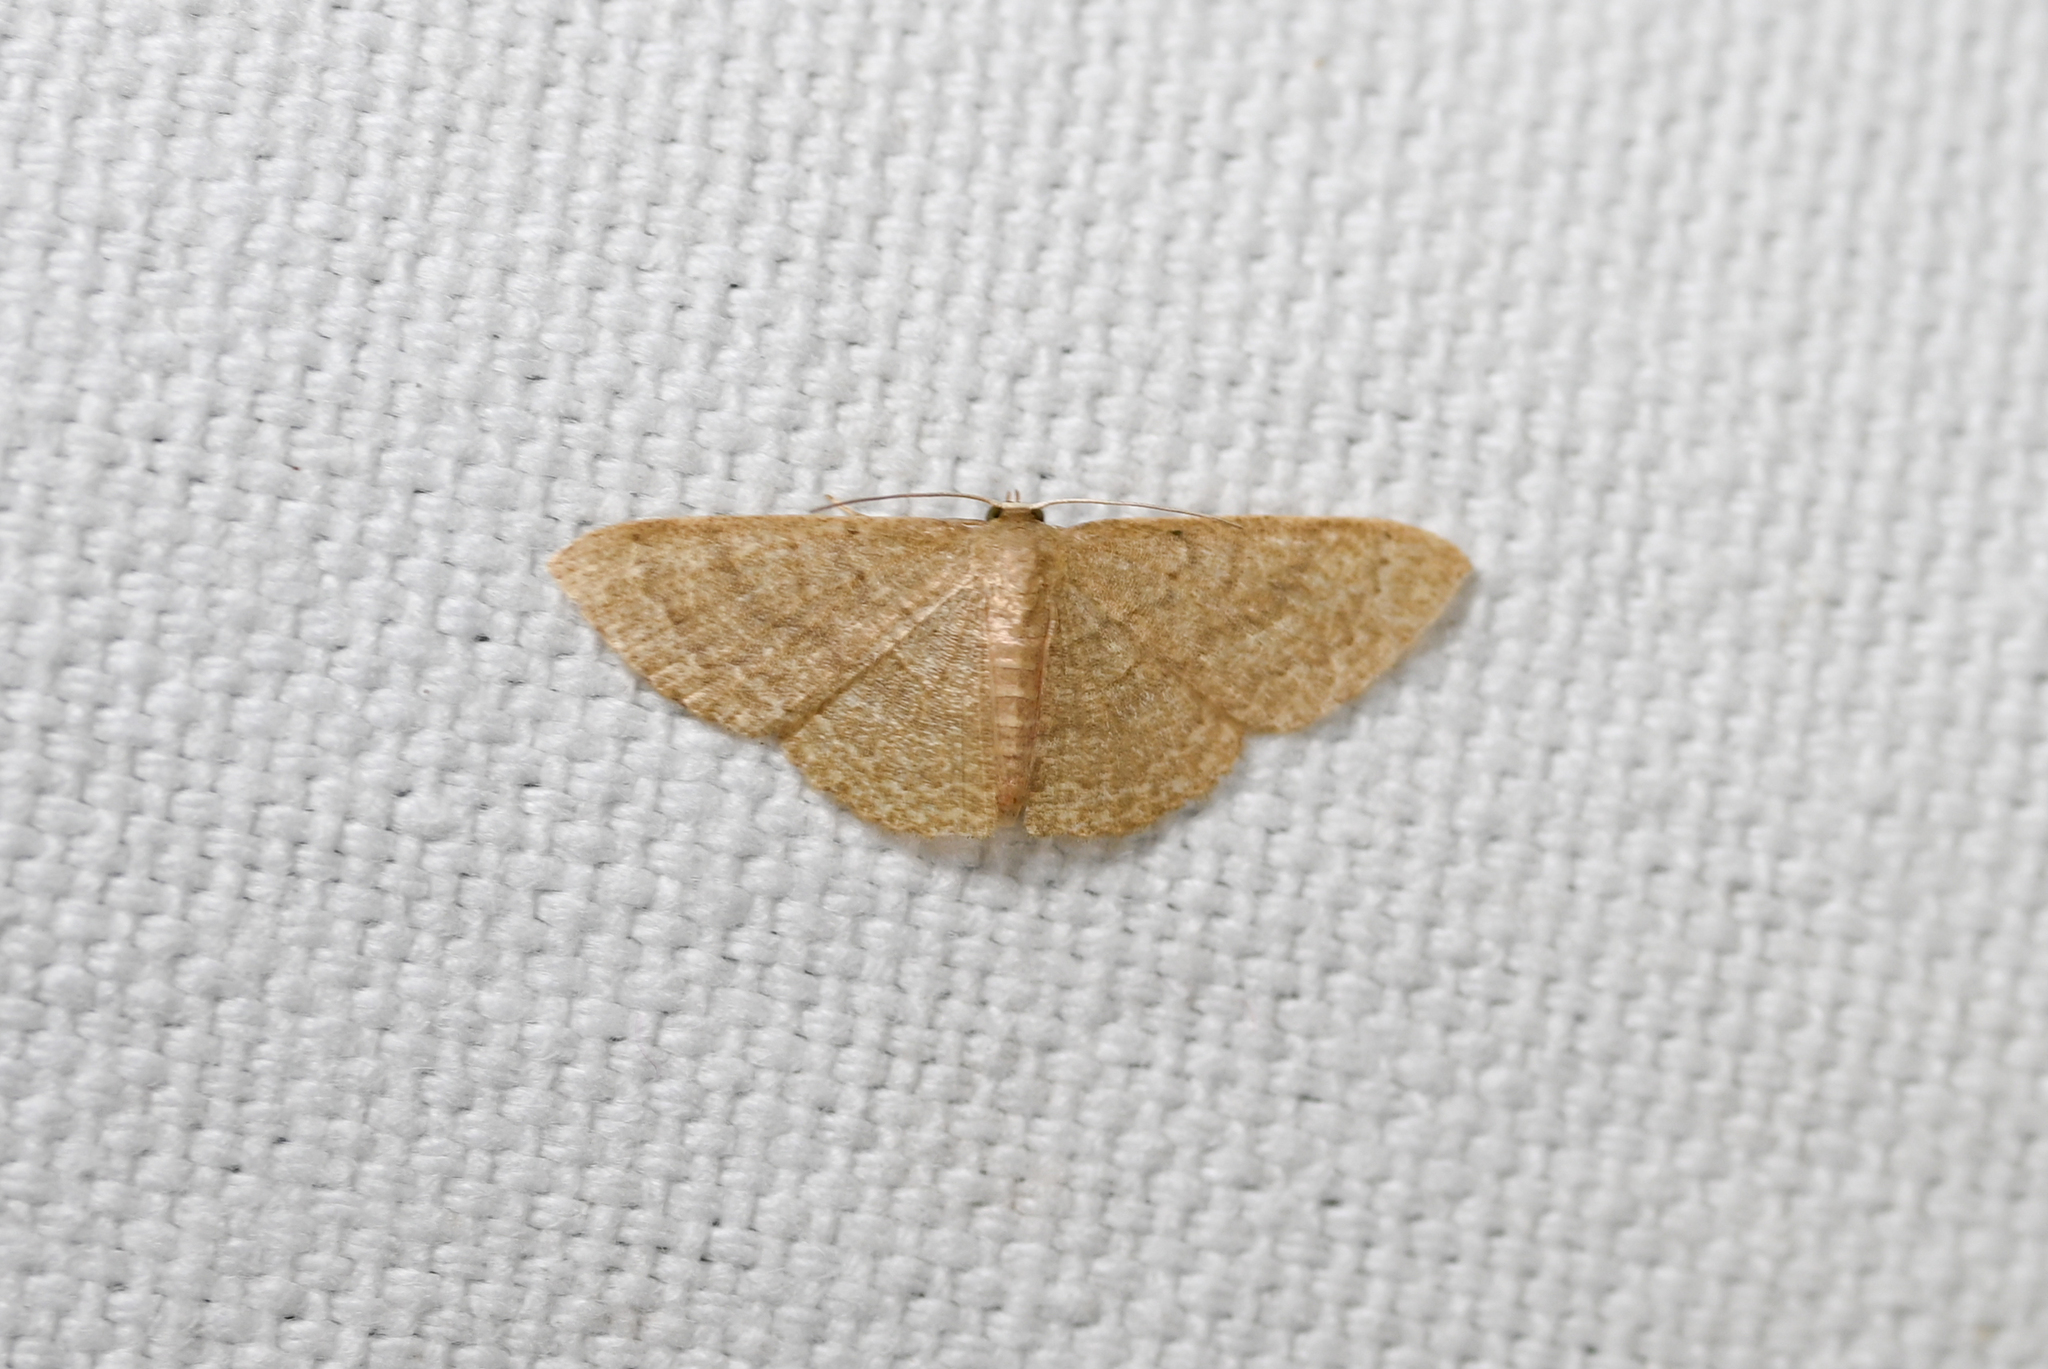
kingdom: Animalia
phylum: Arthropoda
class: Insecta
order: Lepidoptera
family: Geometridae
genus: Pleuroprucha
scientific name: Pleuroprucha insulsaria
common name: Common tan wave
